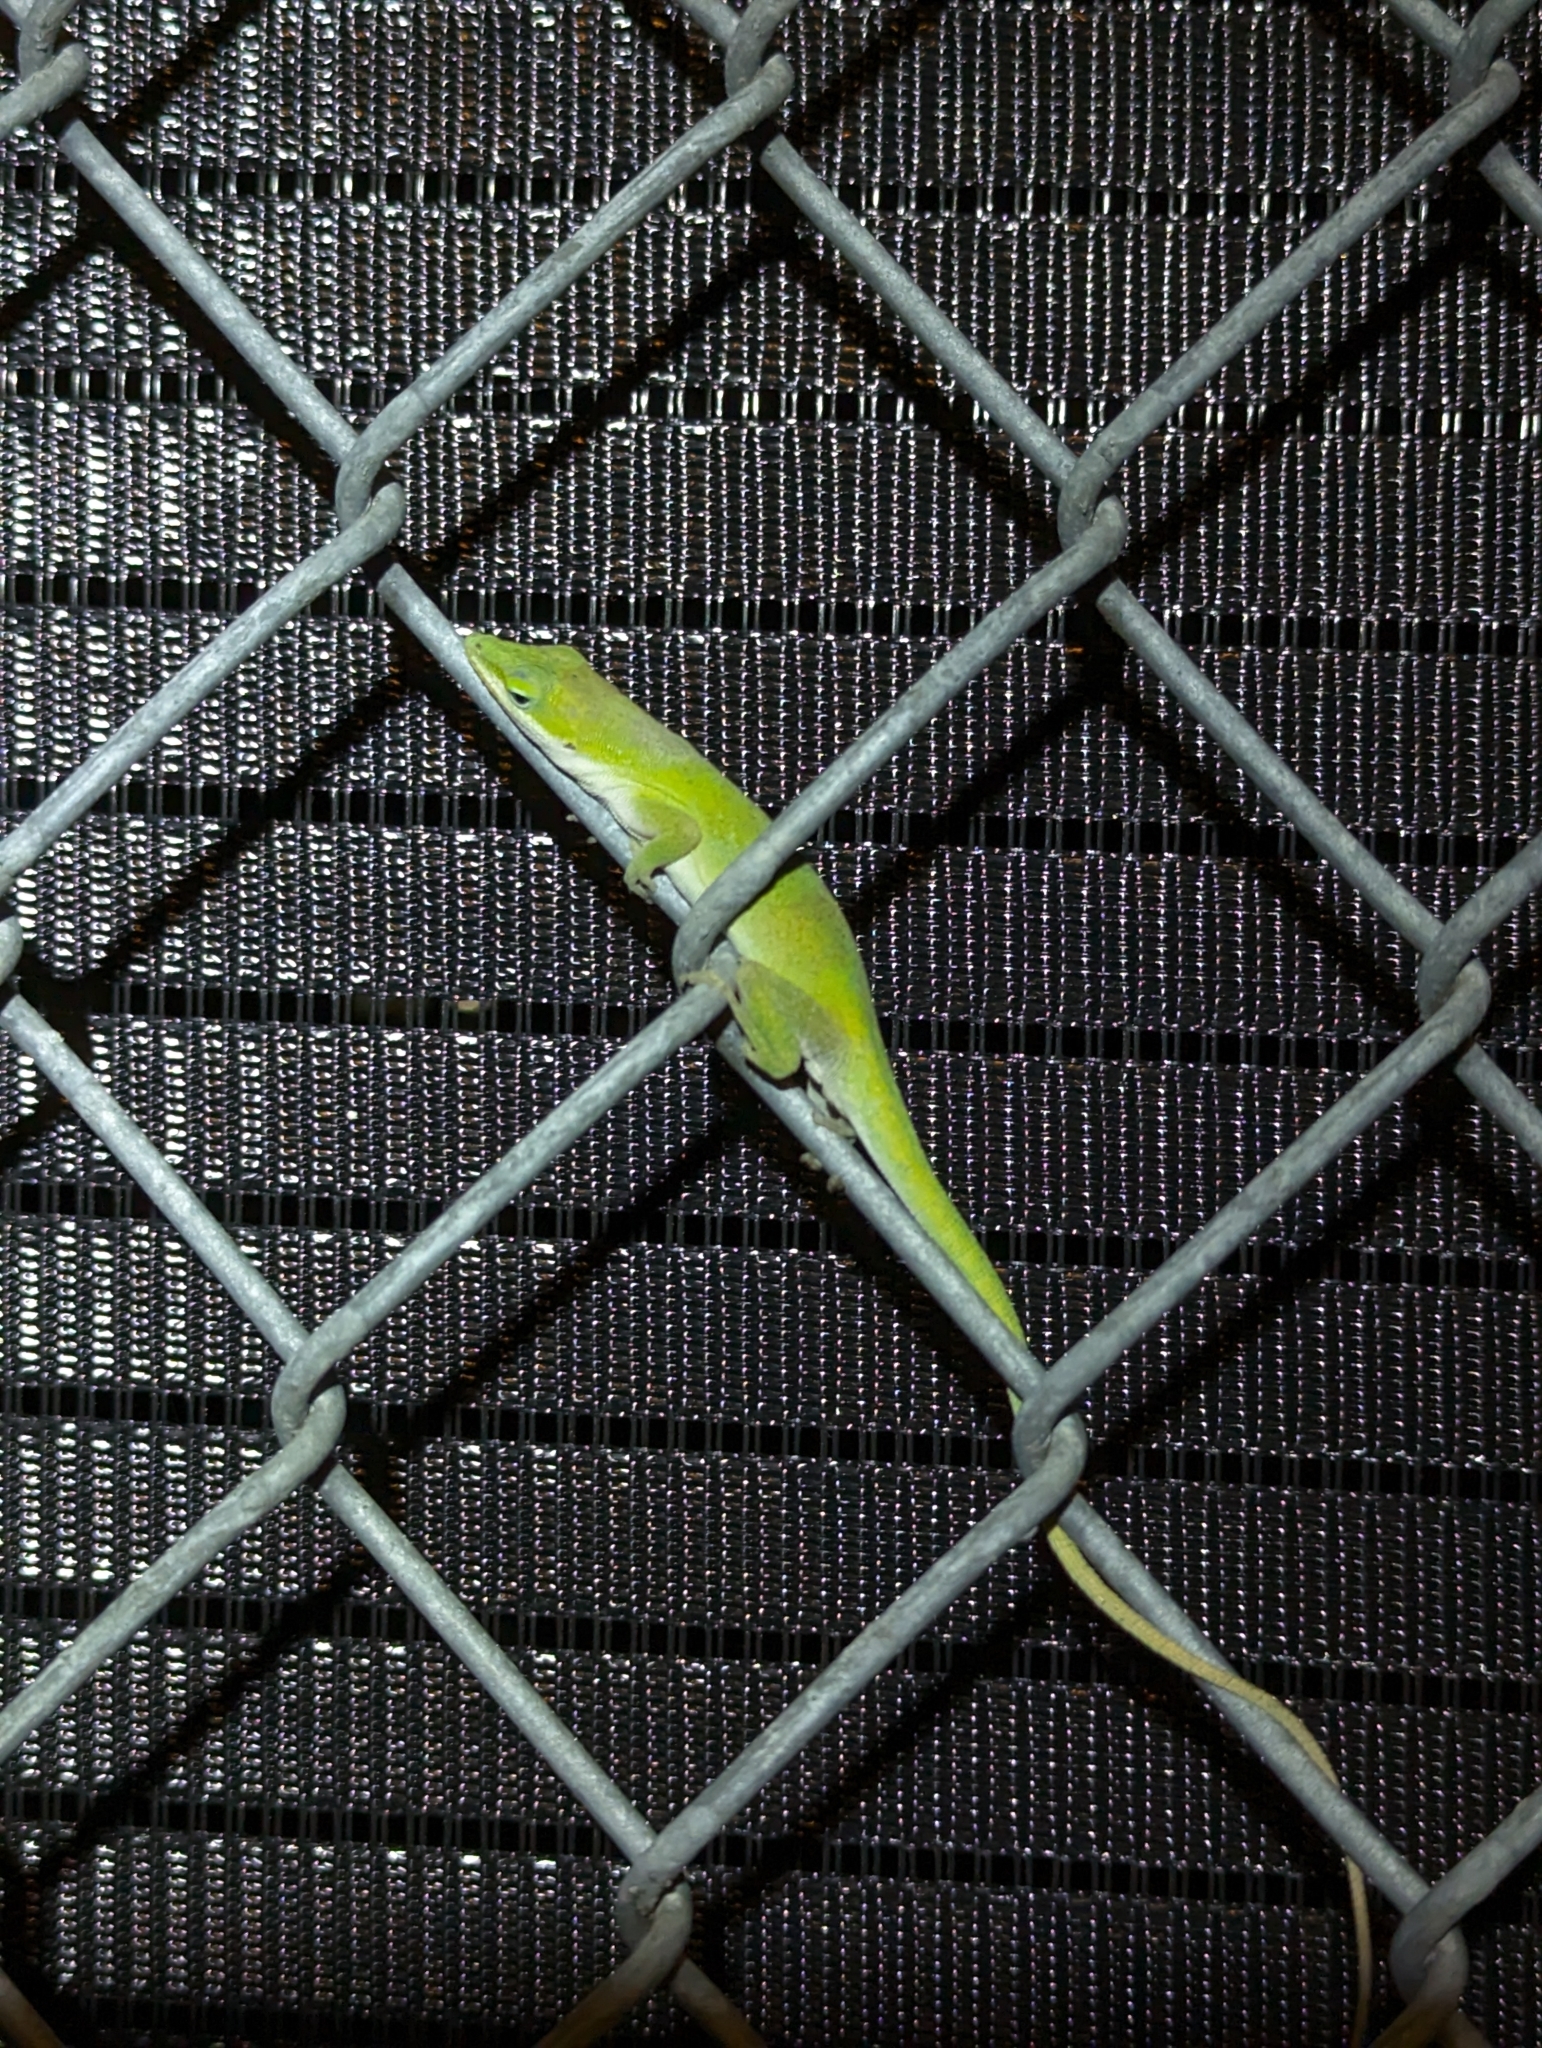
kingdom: Animalia
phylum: Chordata
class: Squamata
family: Dactyloidae
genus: Anolis
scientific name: Anolis carolinensis
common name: Green anole
